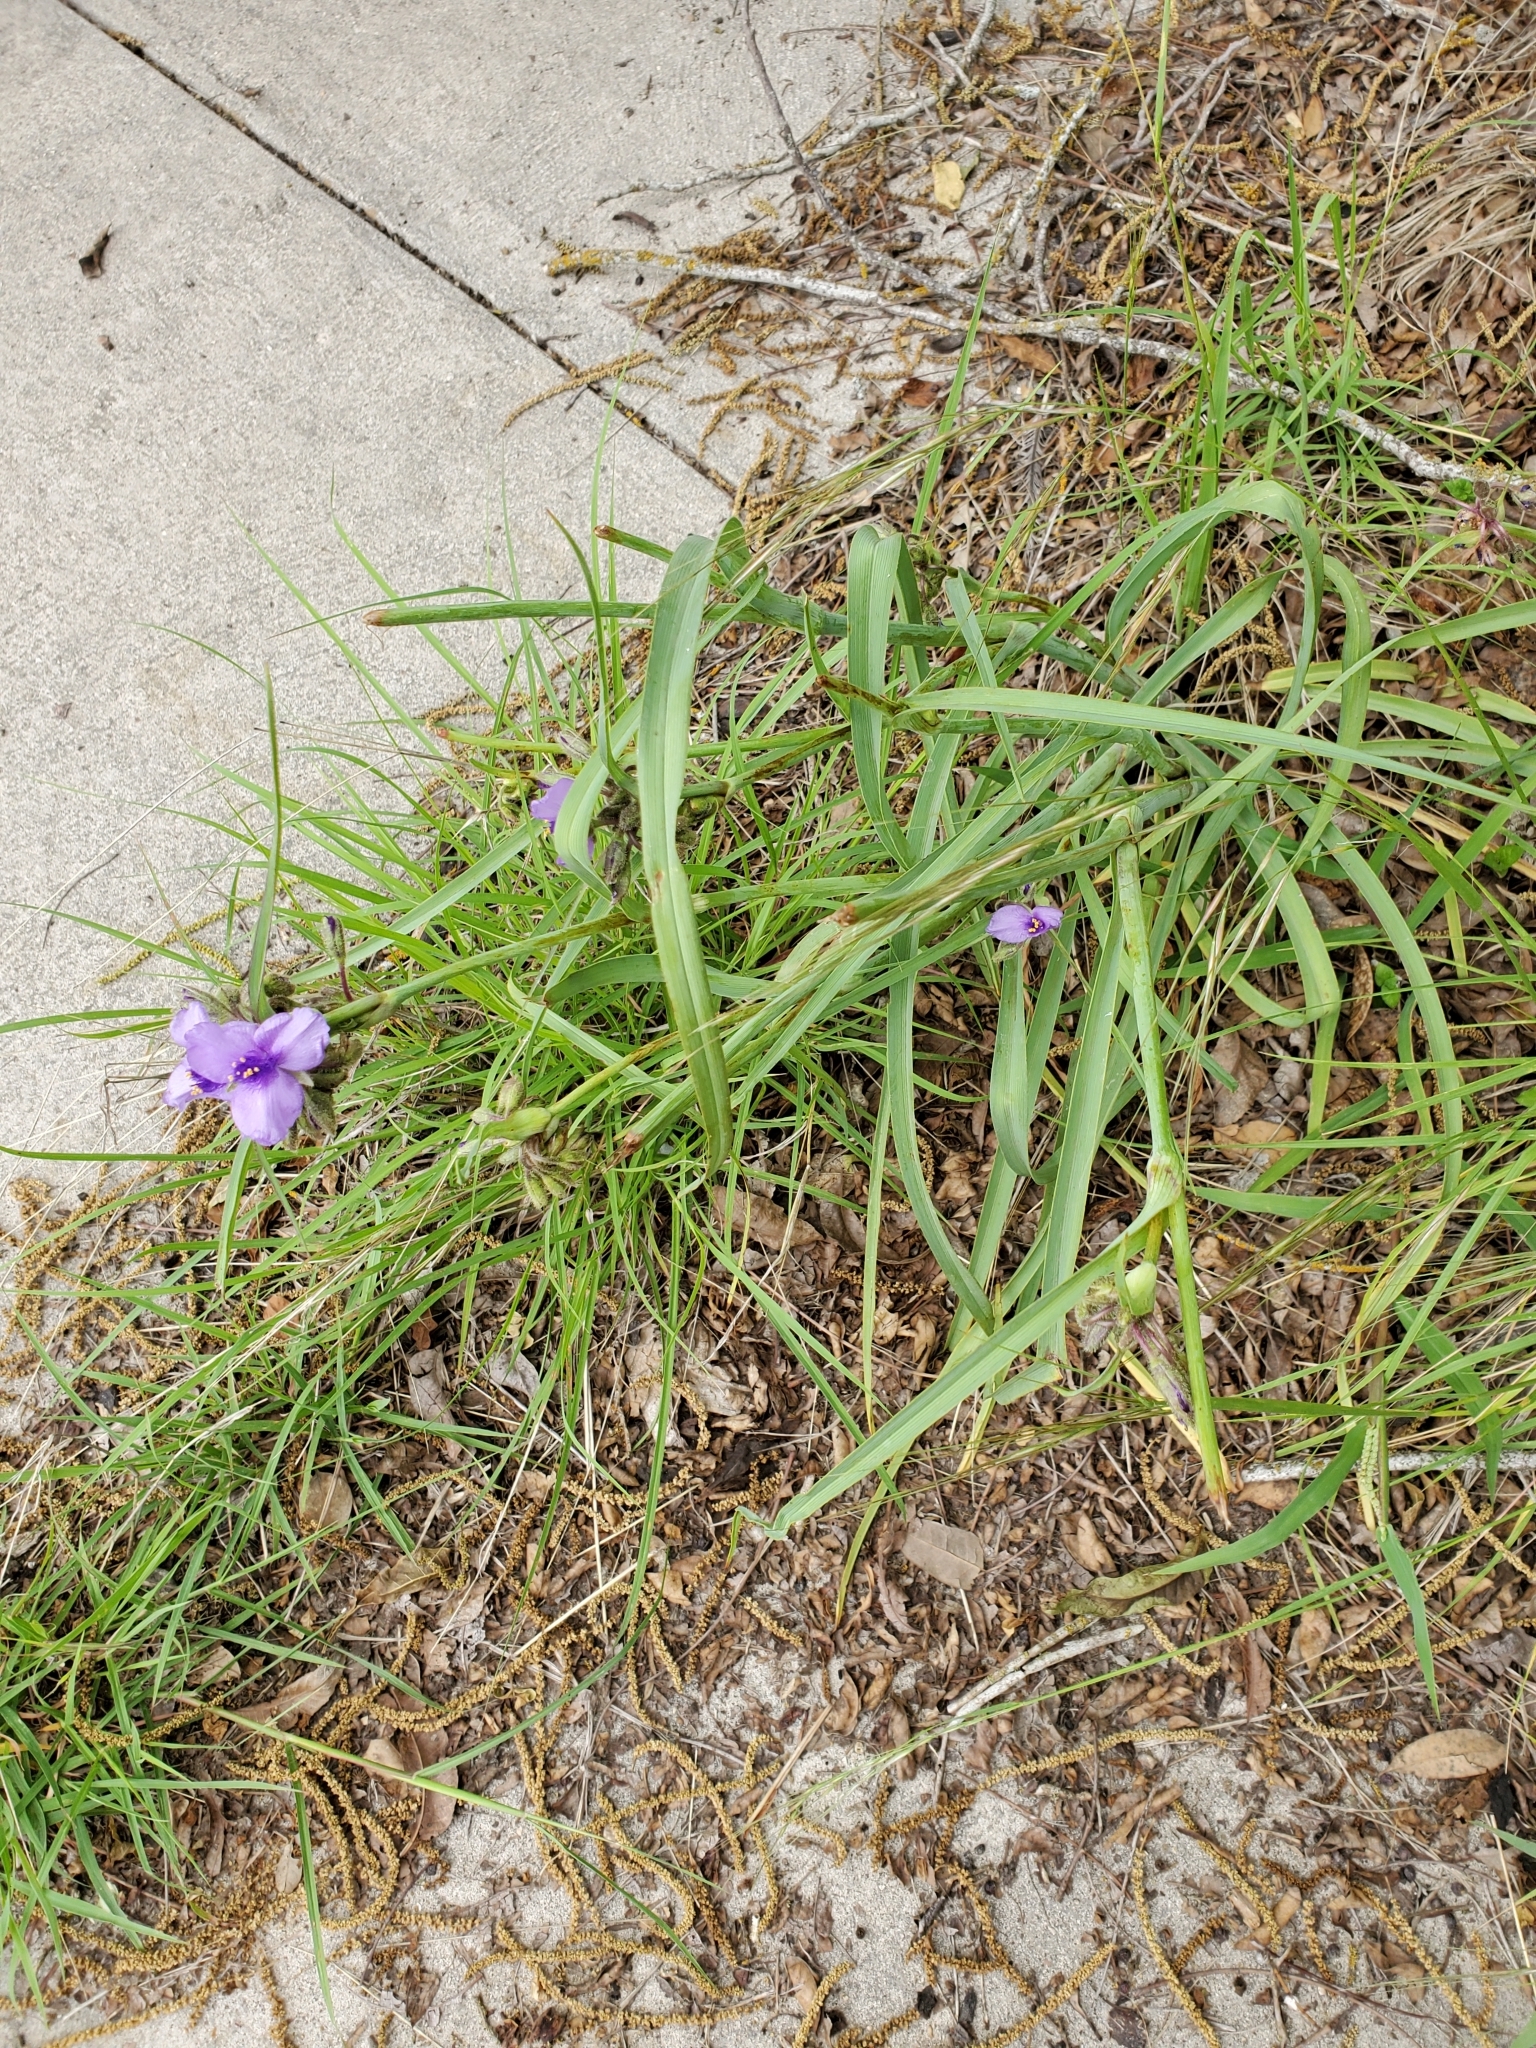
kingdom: Plantae
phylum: Tracheophyta
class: Liliopsida
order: Commelinales
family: Commelinaceae
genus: Tradescantia
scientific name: Tradescantia hirsutiflora
